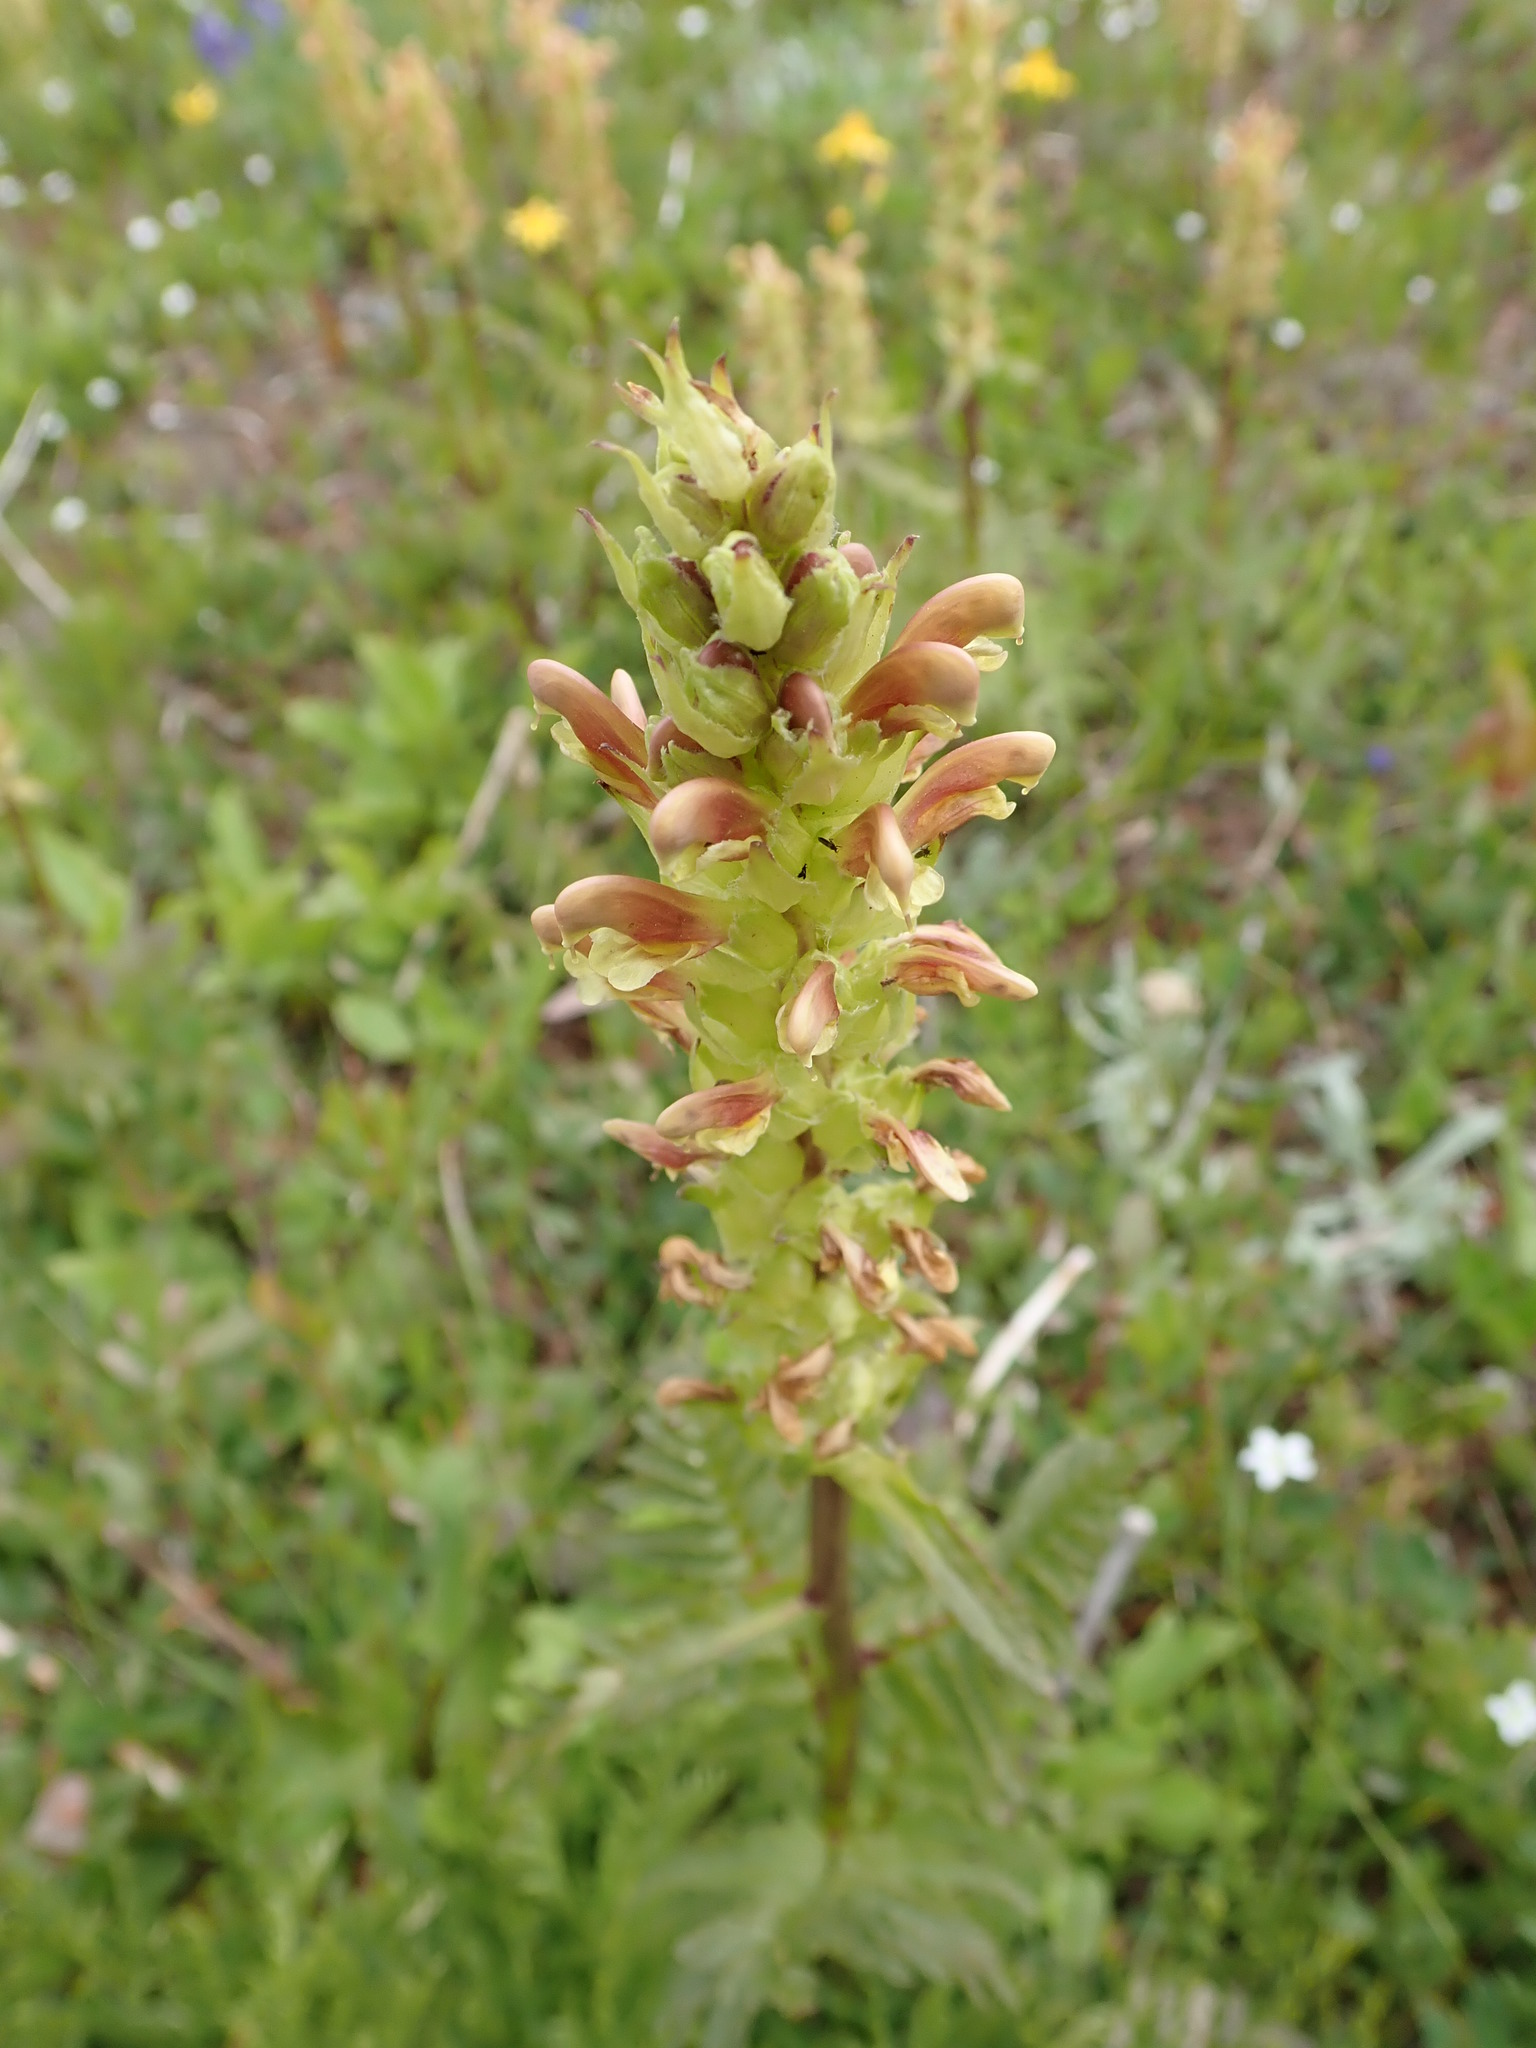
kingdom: Plantae
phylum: Tracheophyta
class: Magnoliopsida
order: Lamiales
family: Orobanchaceae
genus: Pedicularis
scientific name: Pedicularis bracteosa
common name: Bracted lousewort
